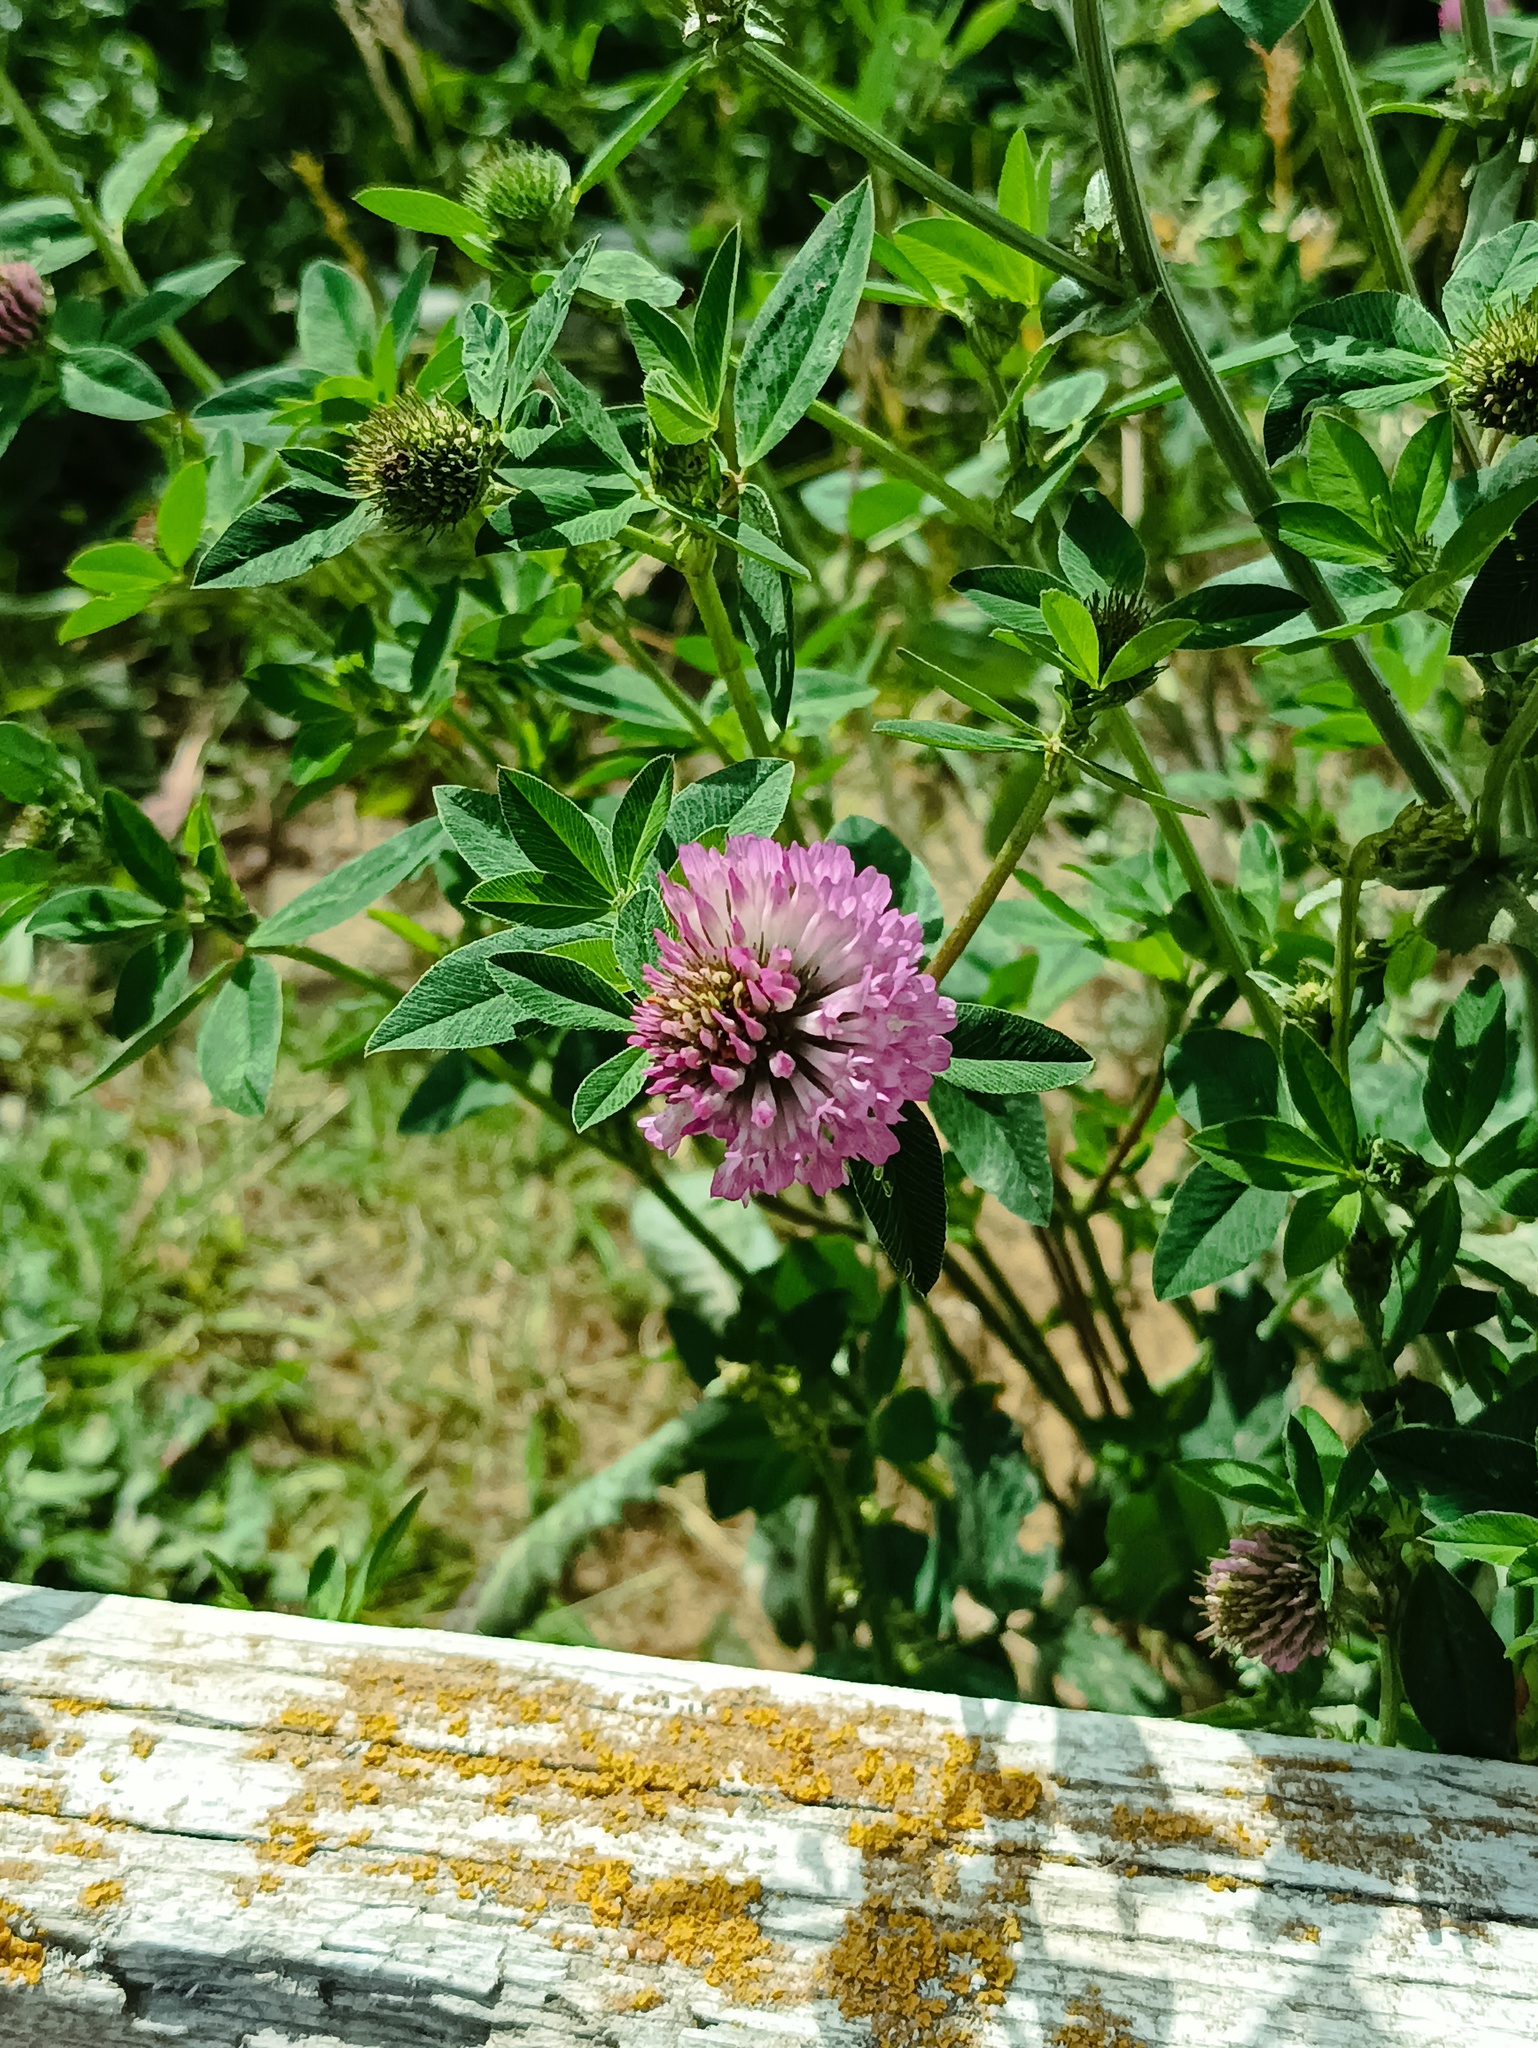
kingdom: Plantae
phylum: Tracheophyta
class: Magnoliopsida
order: Fabales
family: Fabaceae
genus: Trifolium
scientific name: Trifolium pratense
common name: Red clover
